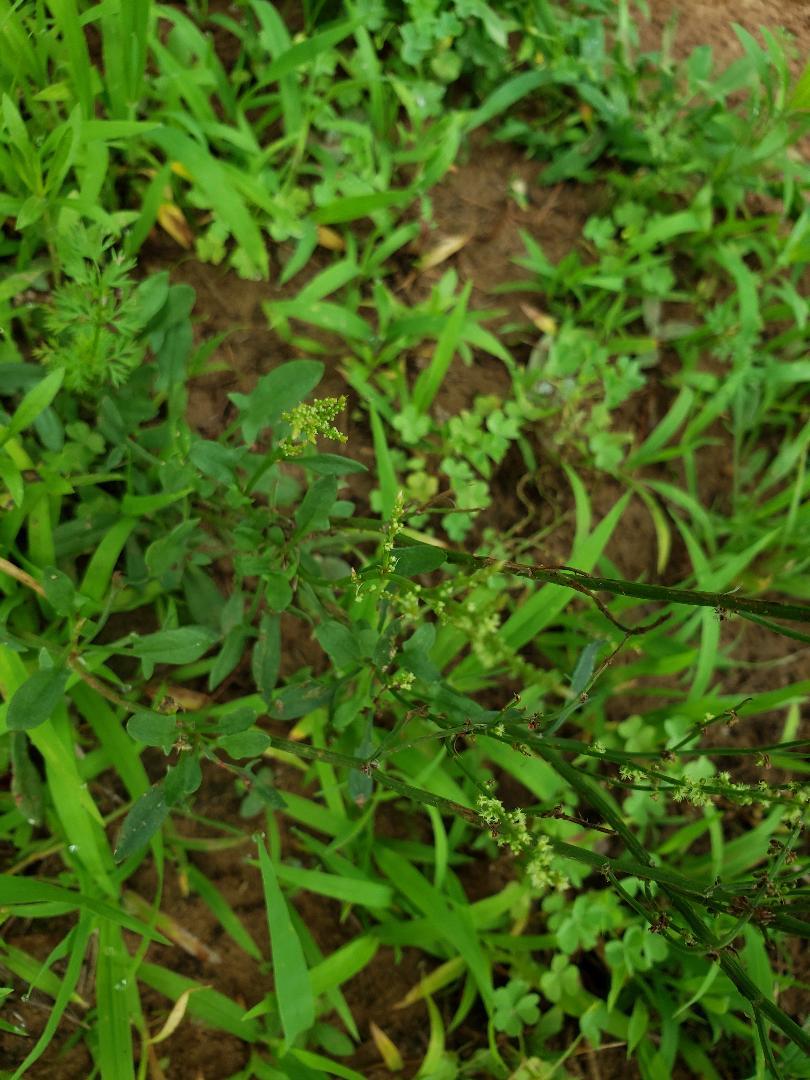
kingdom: Plantae
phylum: Tracheophyta
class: Magnoliopsida
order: Caryophyllales
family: Polygonaceae
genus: Rumex
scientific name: Rumex acetosella
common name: Common sheep sorrel
